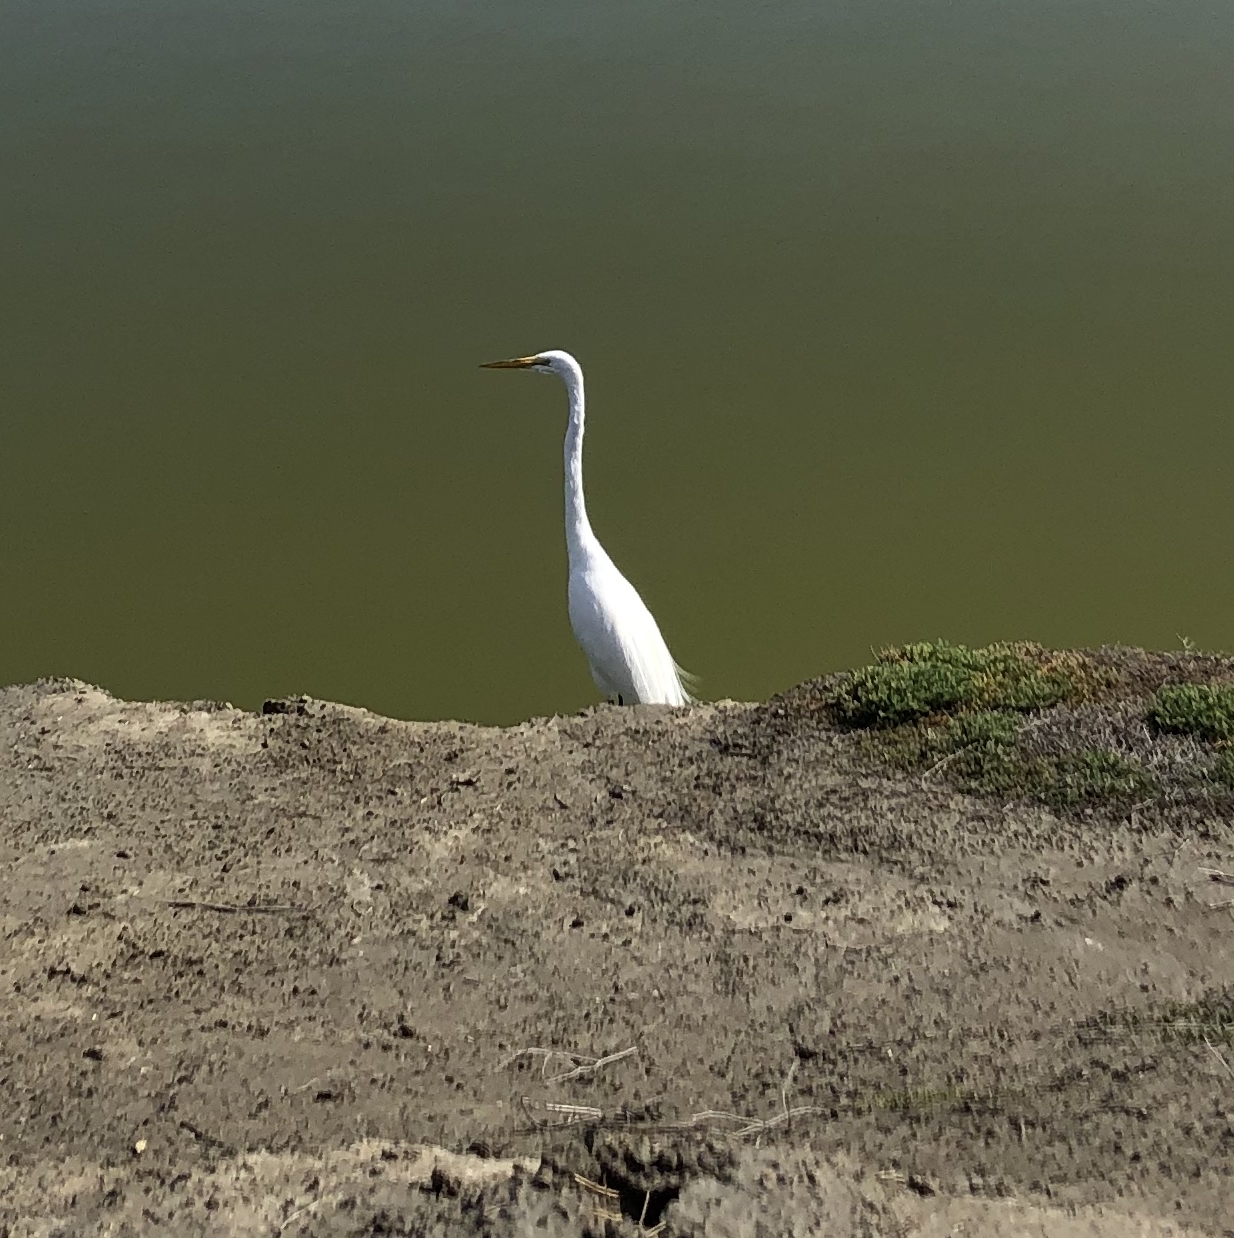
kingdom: Animalia
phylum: Chordata
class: Aves
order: Pelecaniformes
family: Ardeidae
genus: Ardea
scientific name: Ardea alba
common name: Great egret
